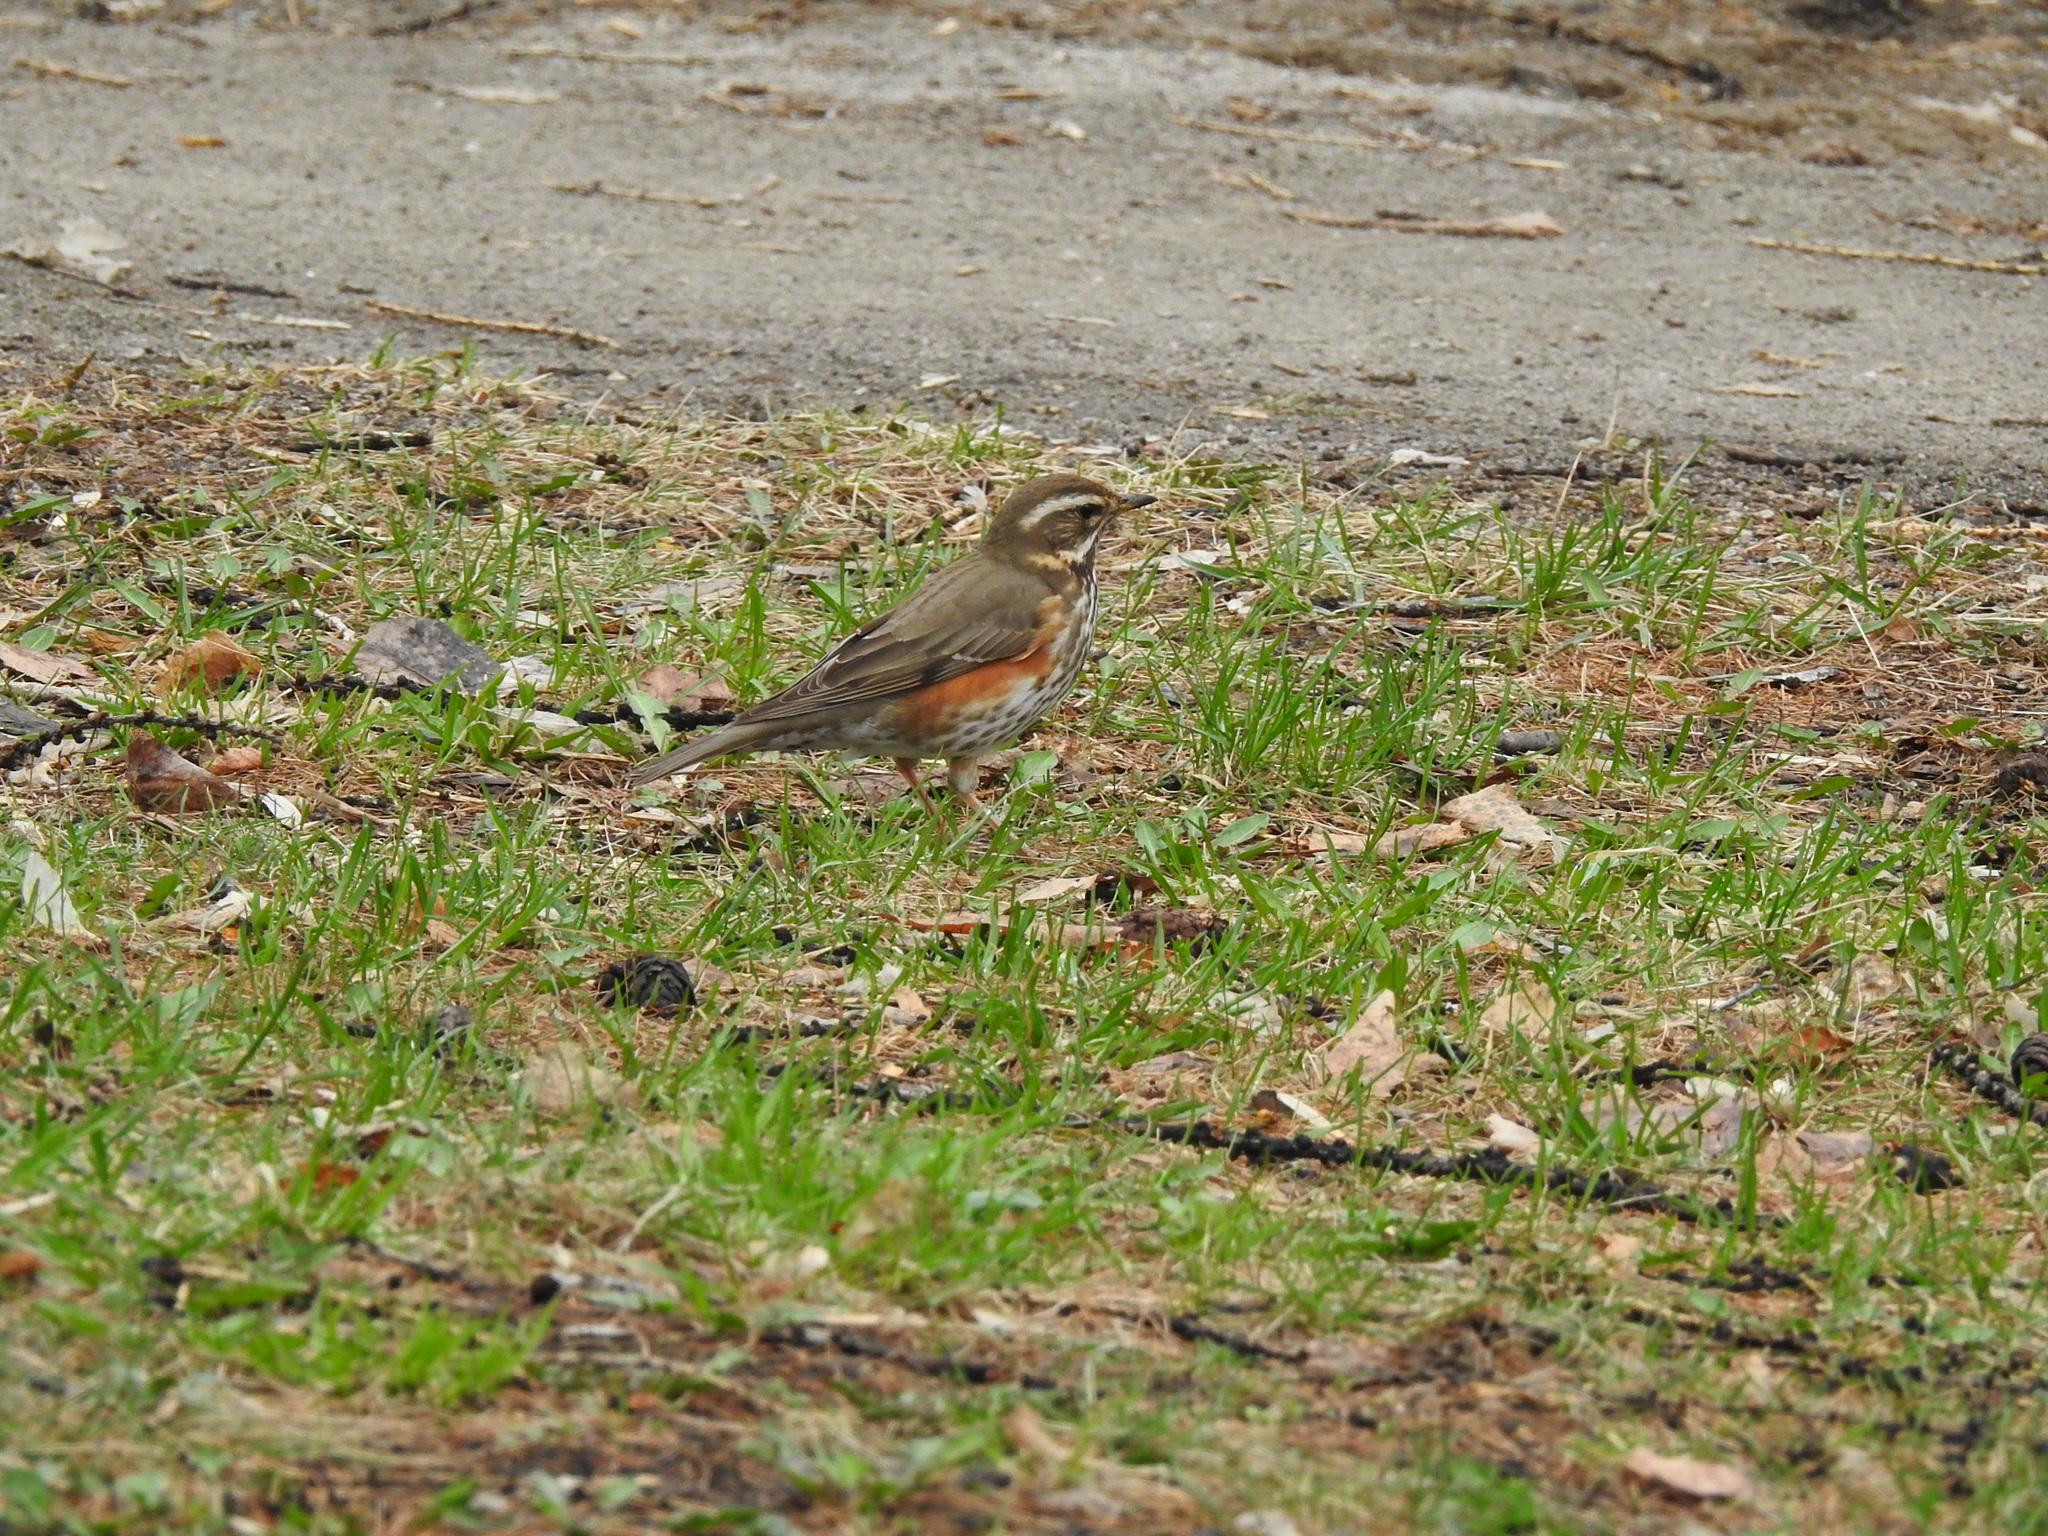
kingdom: Animalia
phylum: Chordata
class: Aves
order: Passeriformes
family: Turdidae
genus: Turdus
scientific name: Turdus iliacus
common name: Redwing
